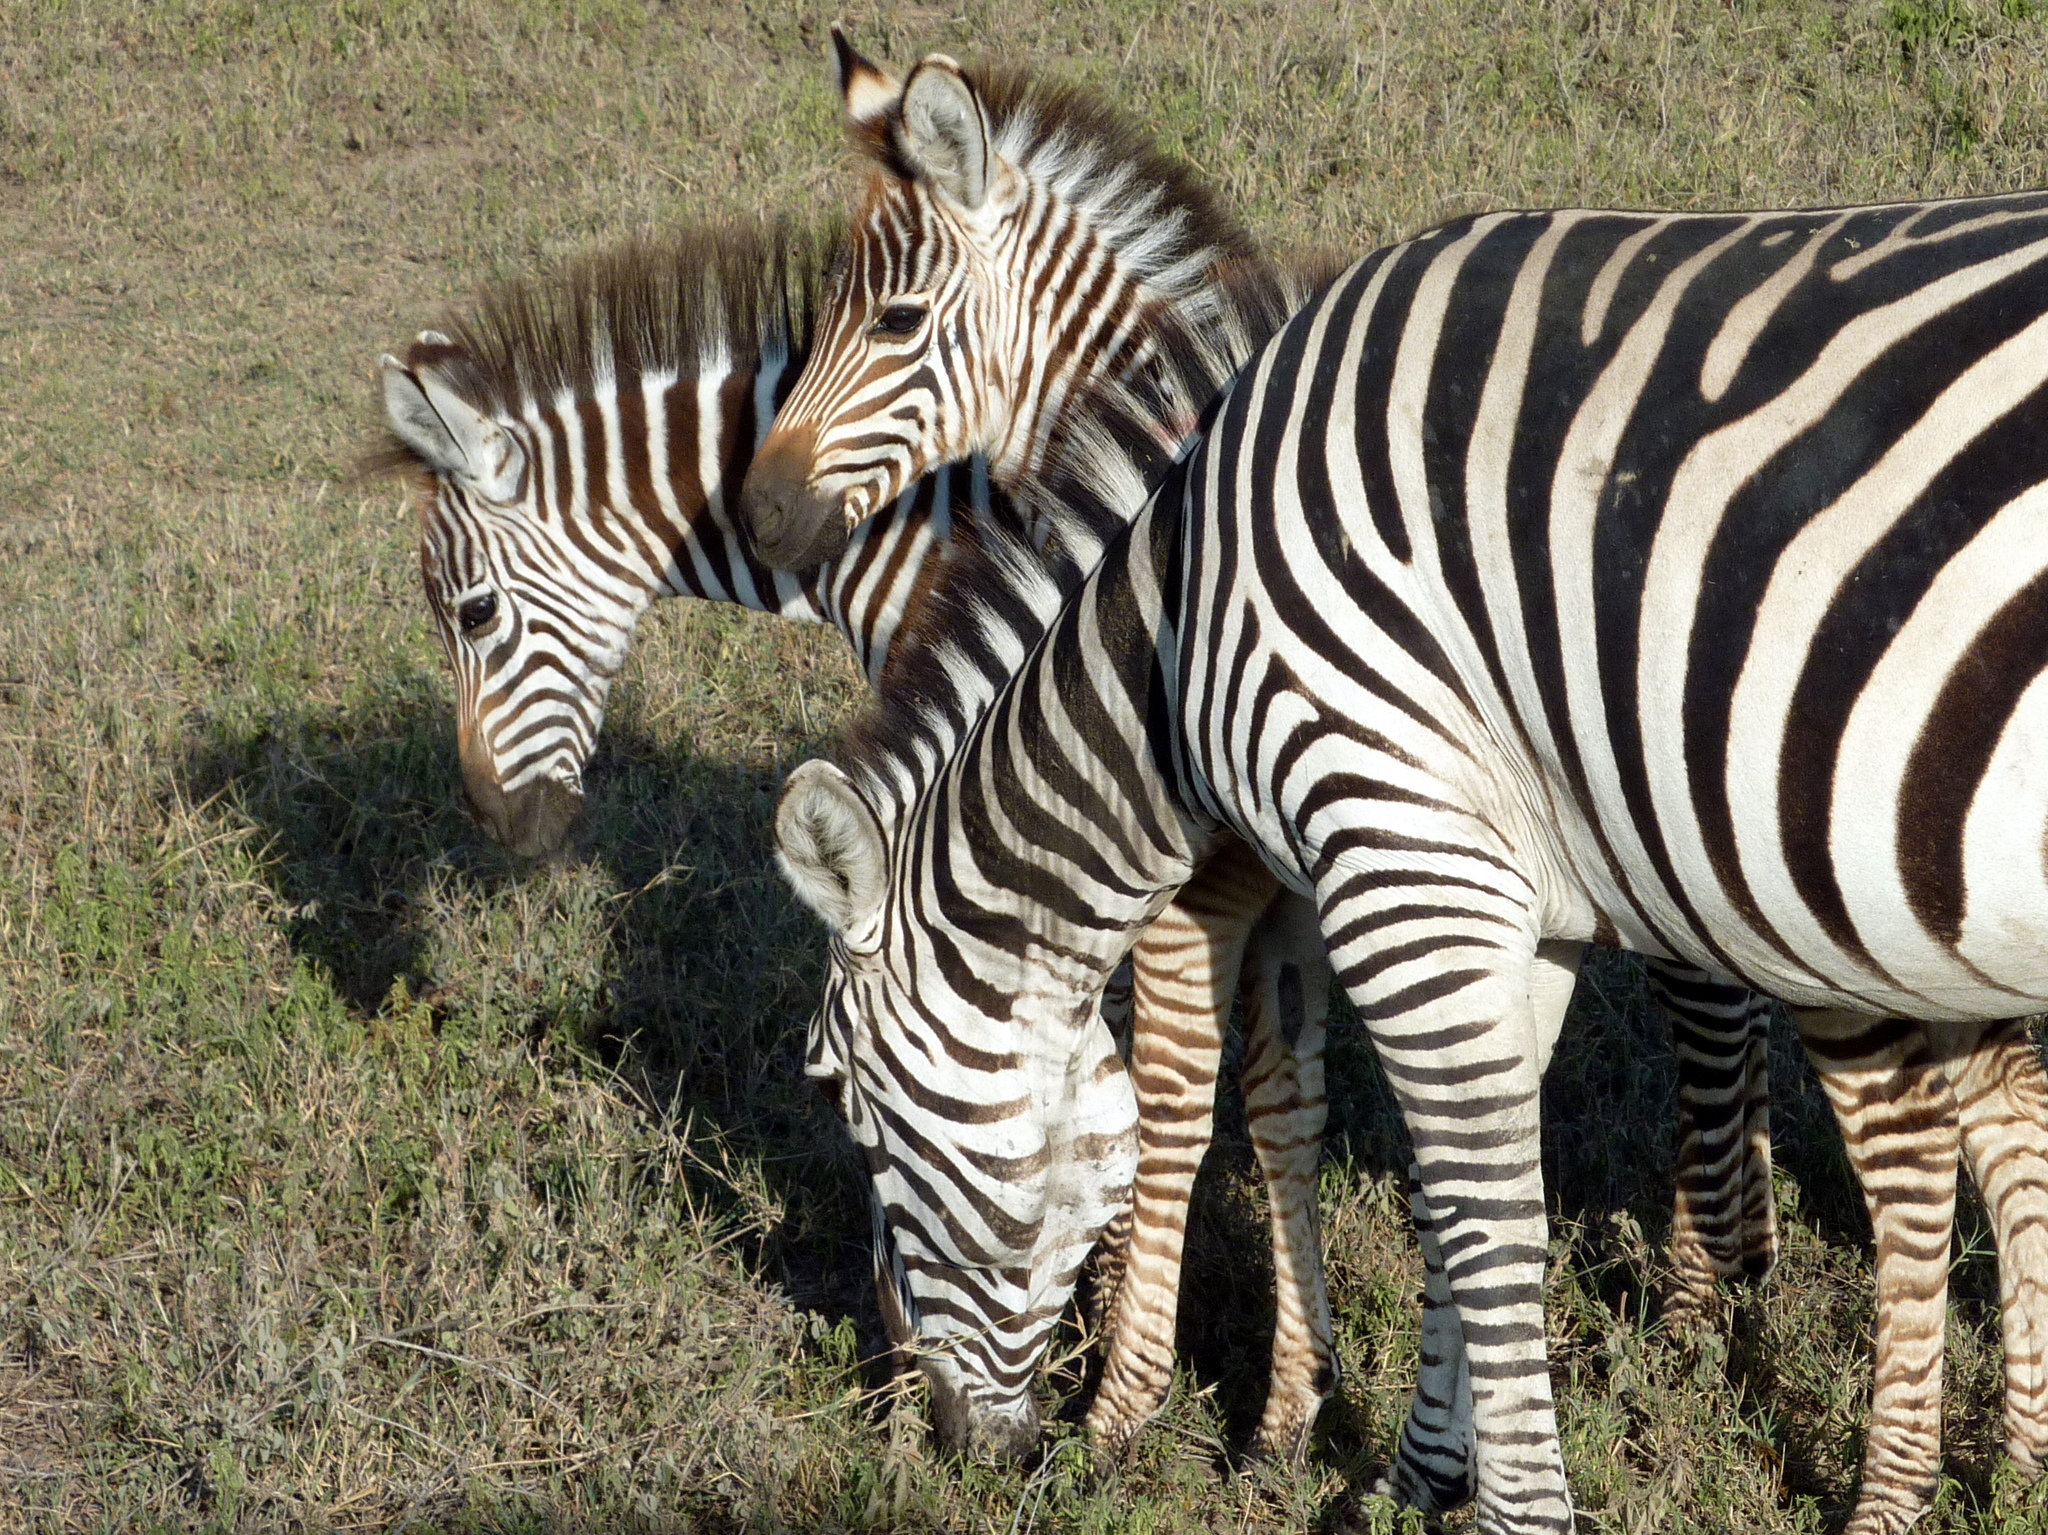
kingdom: Animalia
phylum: Chordata
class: Mammalia
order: Perissodactyla
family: Equidae
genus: Equus
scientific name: Equus quagga
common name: Plains zebra
